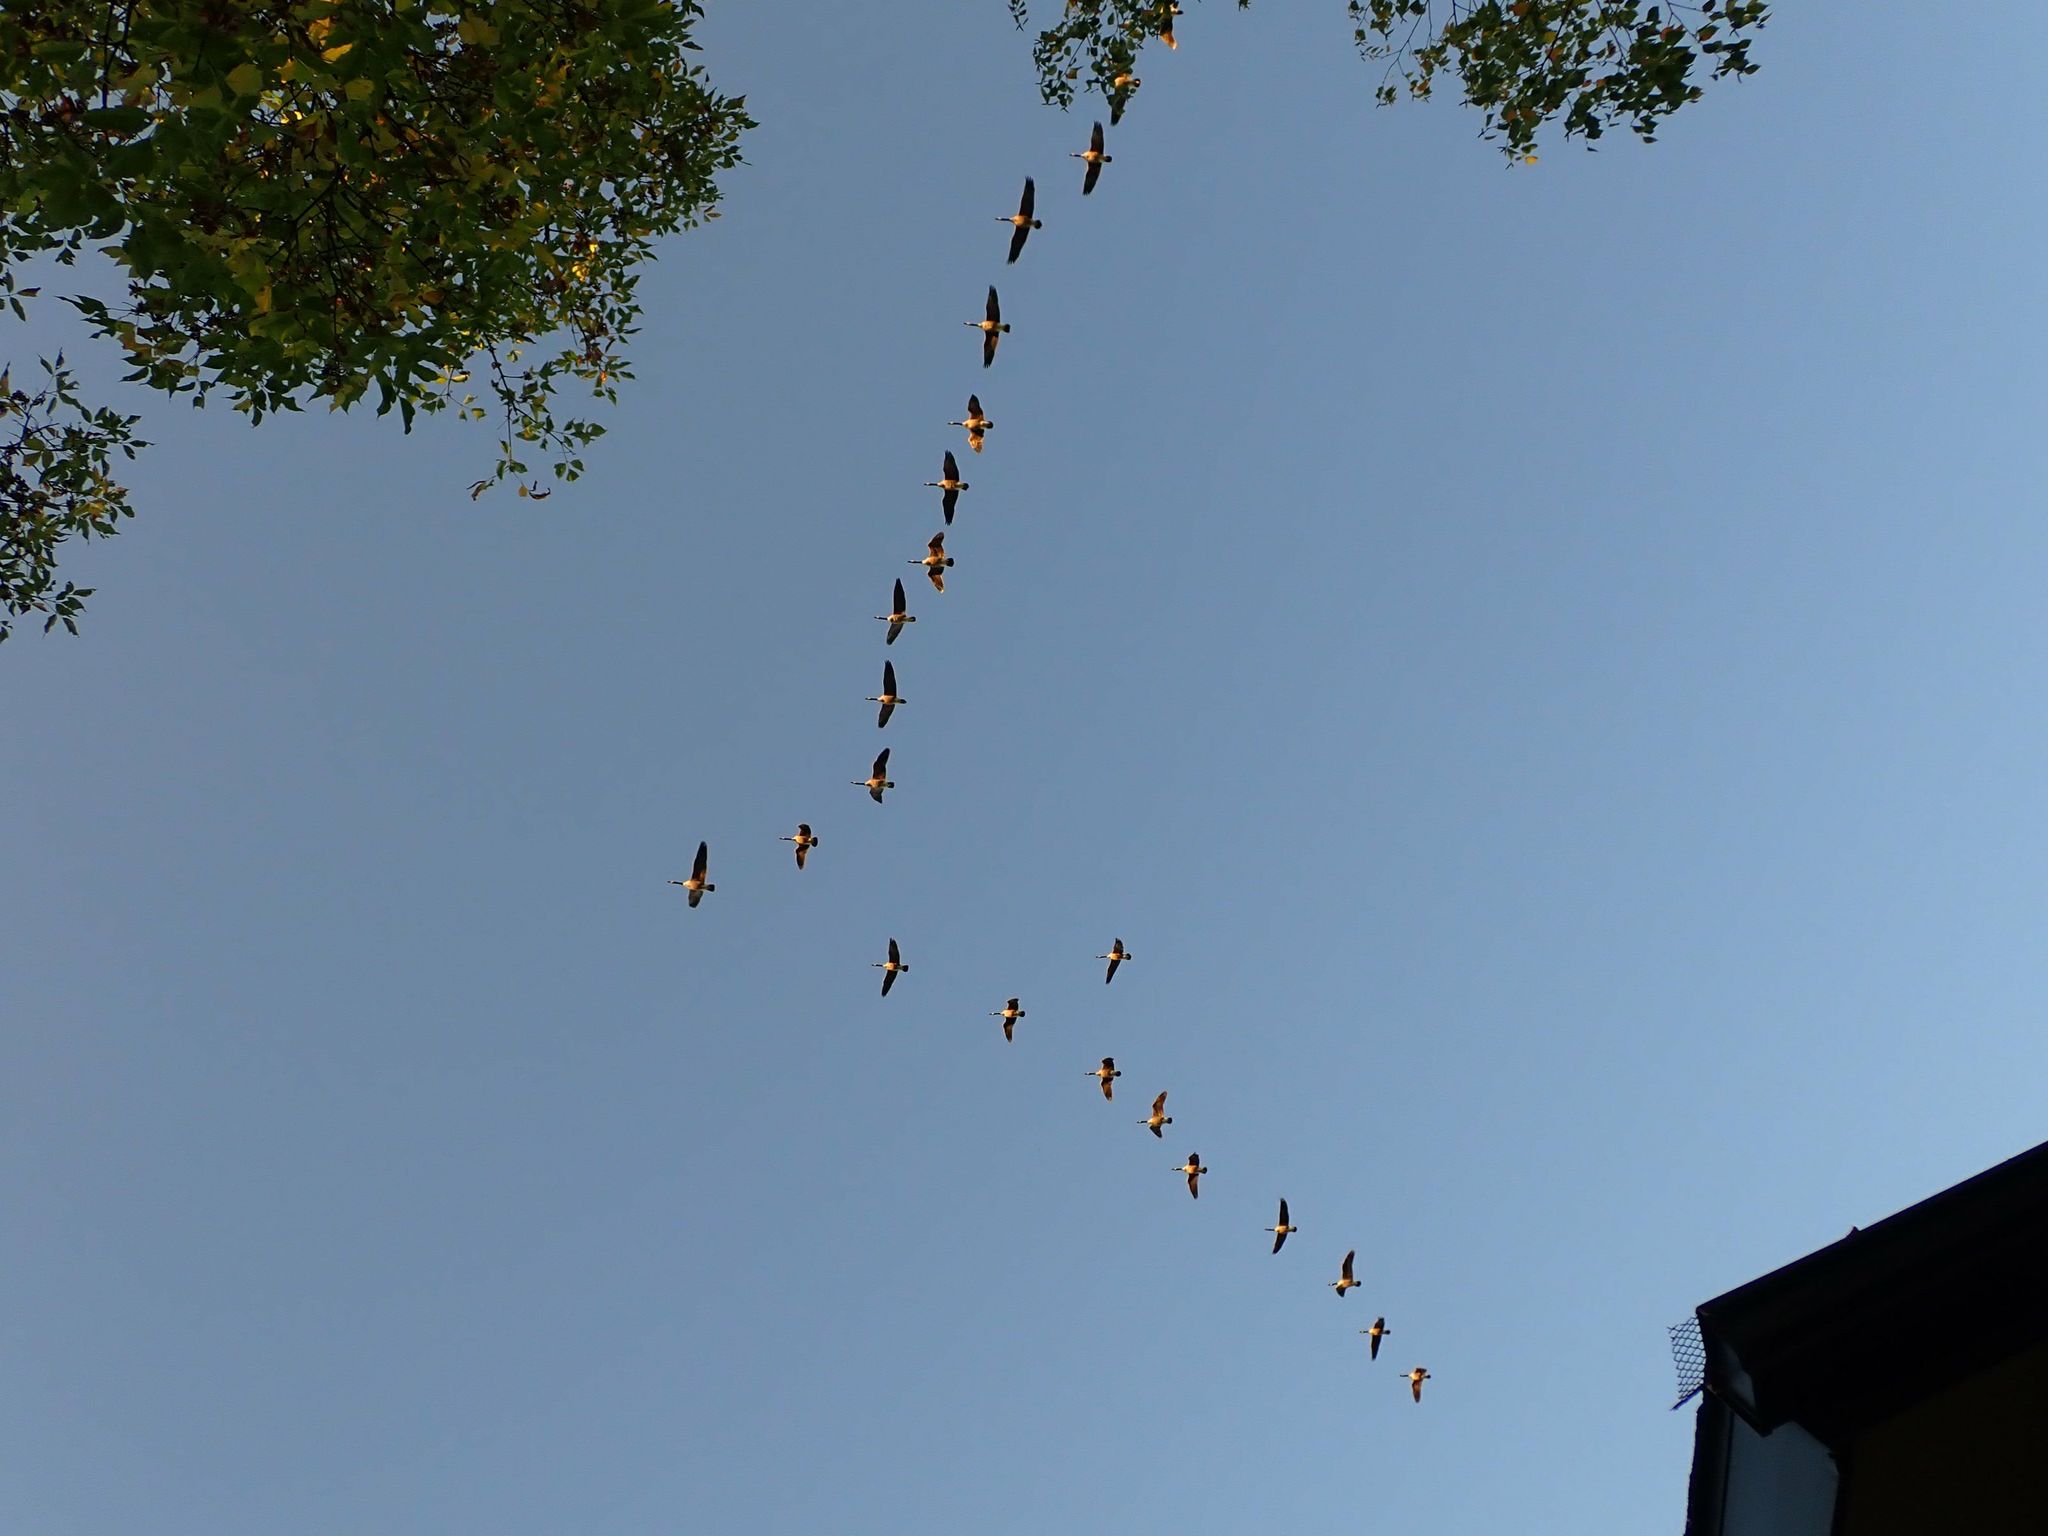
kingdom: Animalia
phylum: Chordata
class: Aves
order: Anseriformes
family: Anatidae
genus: Branta
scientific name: Branta canadensis
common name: Canada goose
